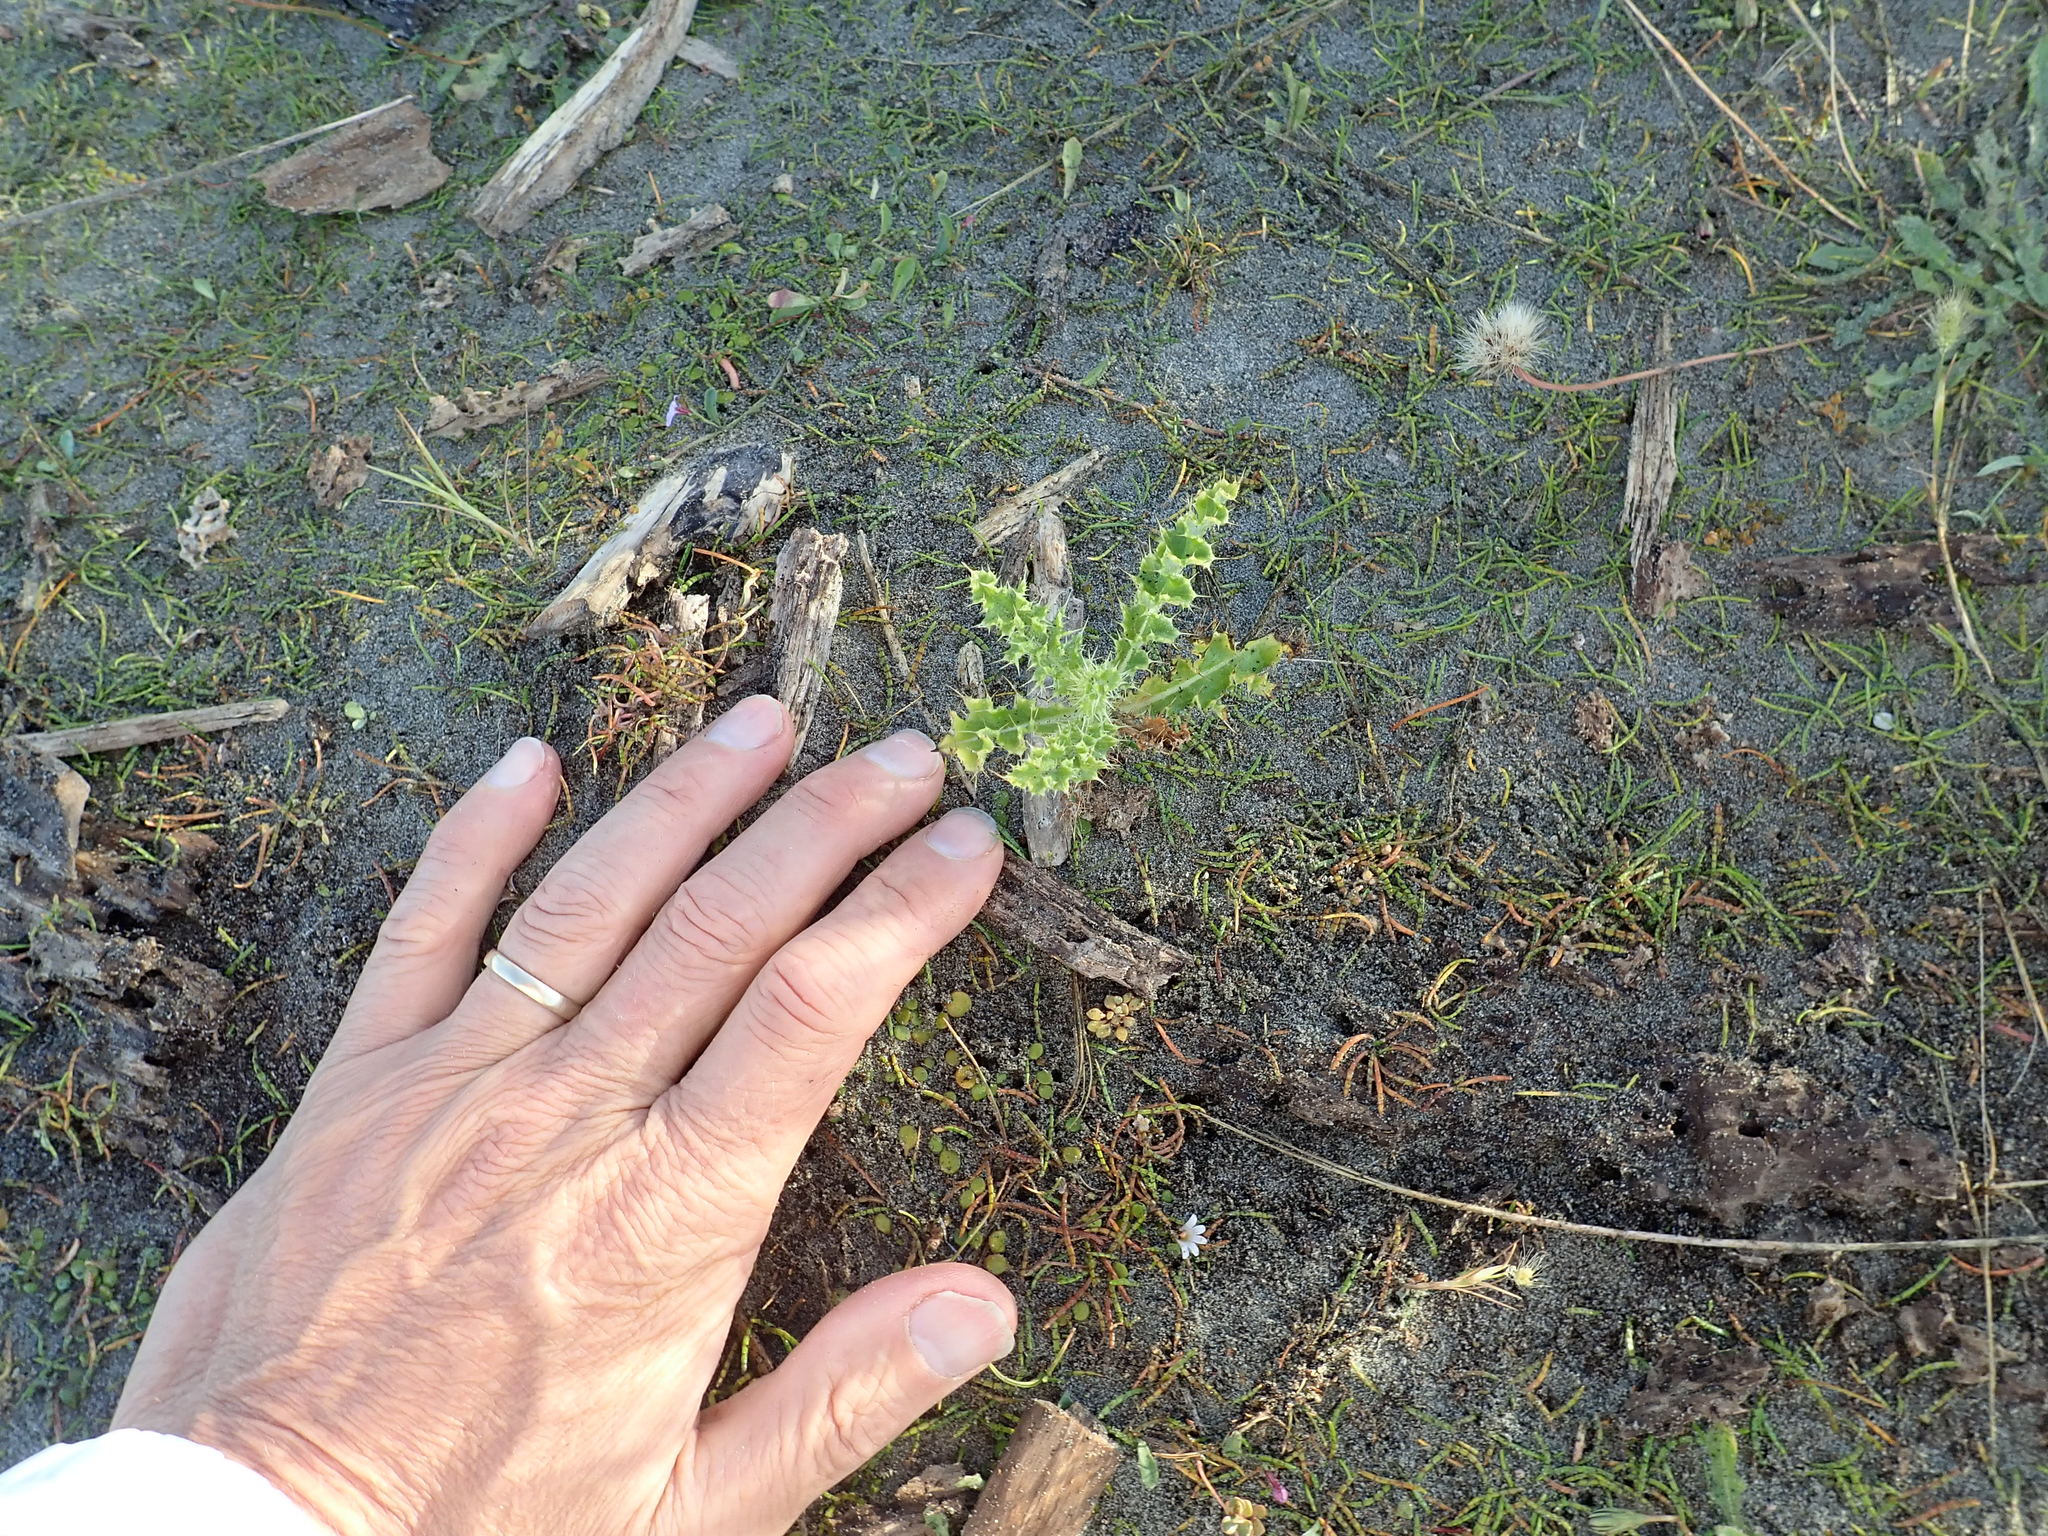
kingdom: Plantae
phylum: Tracheophyta
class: Magnoliopsida
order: Asterales
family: Asteraceae
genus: Cirsium
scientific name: Cirsium arvense
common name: Creeping thistle
